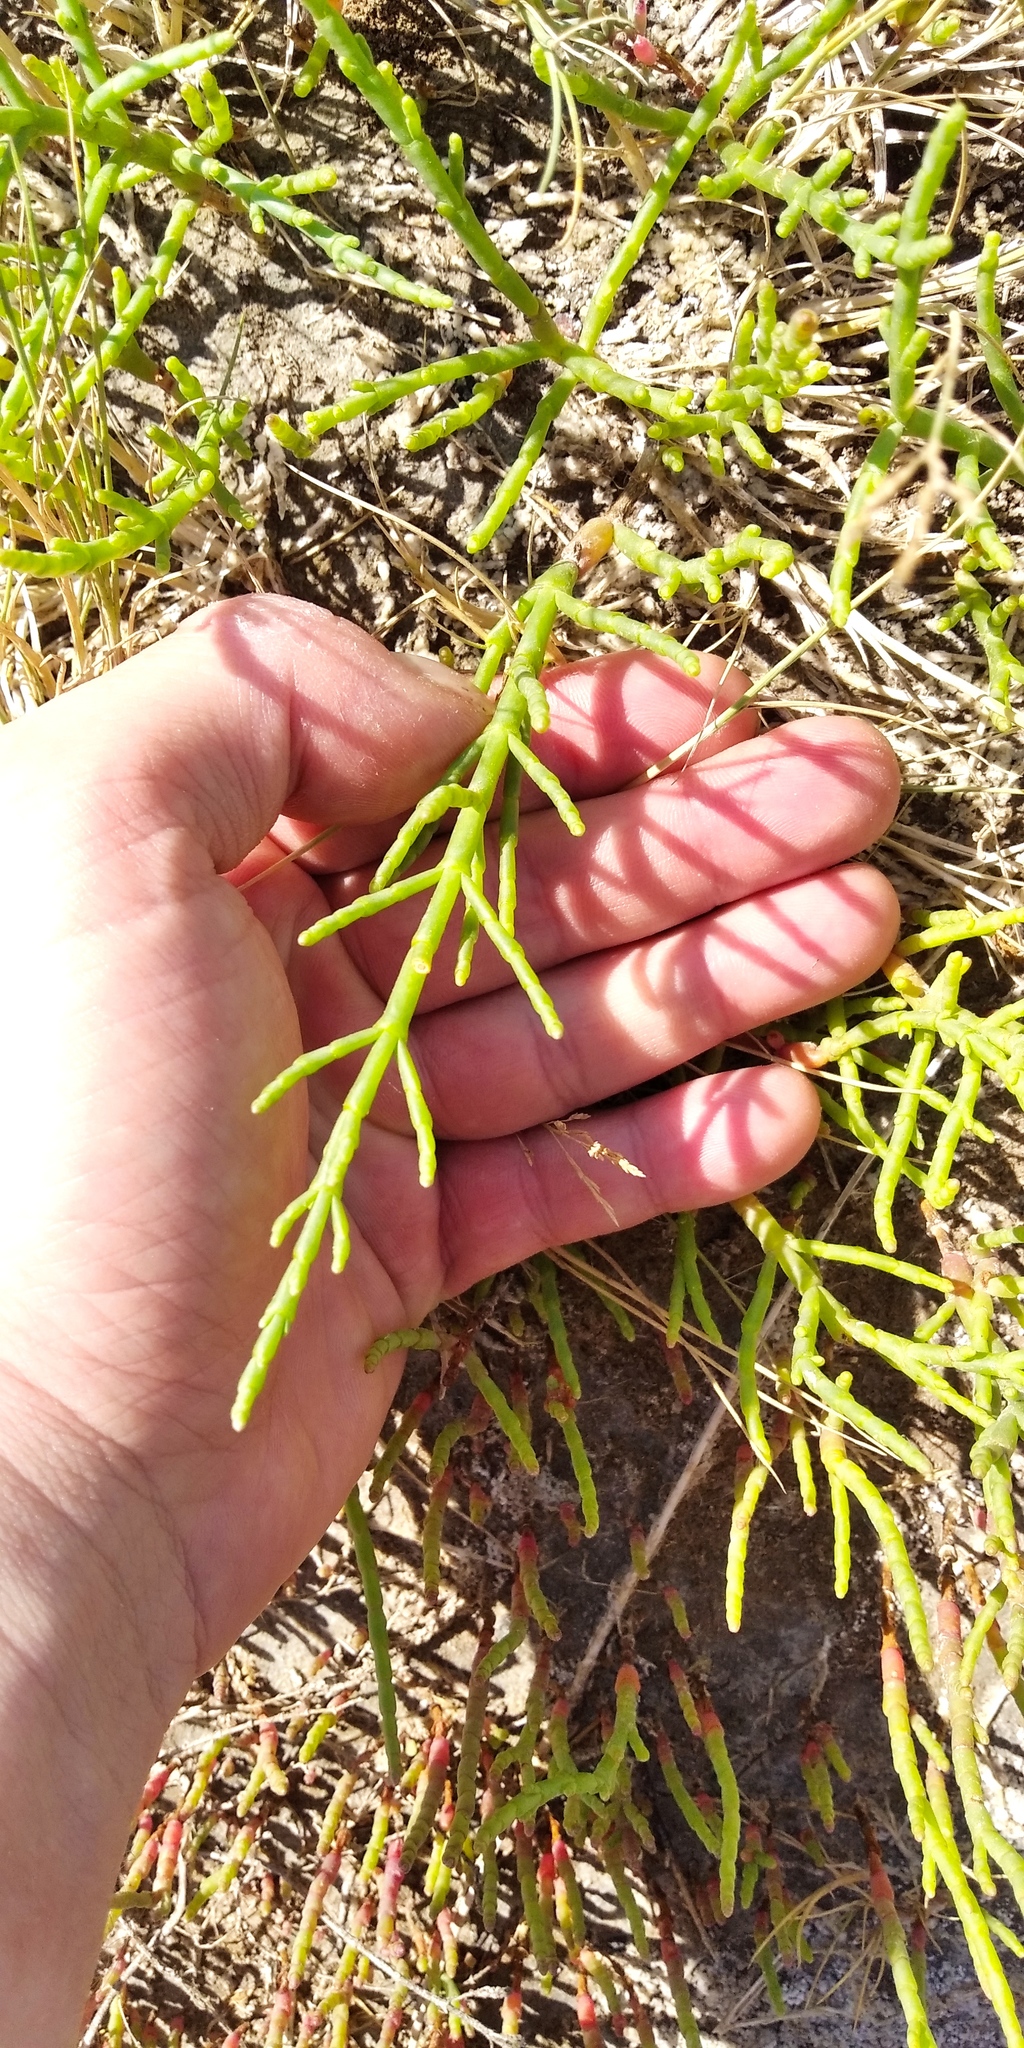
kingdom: Plantae
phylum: Tracheophyta
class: Magnoliopsida
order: Caryophyllales
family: Amaranthaceae
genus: Salicornia
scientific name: Salicornia perennans
